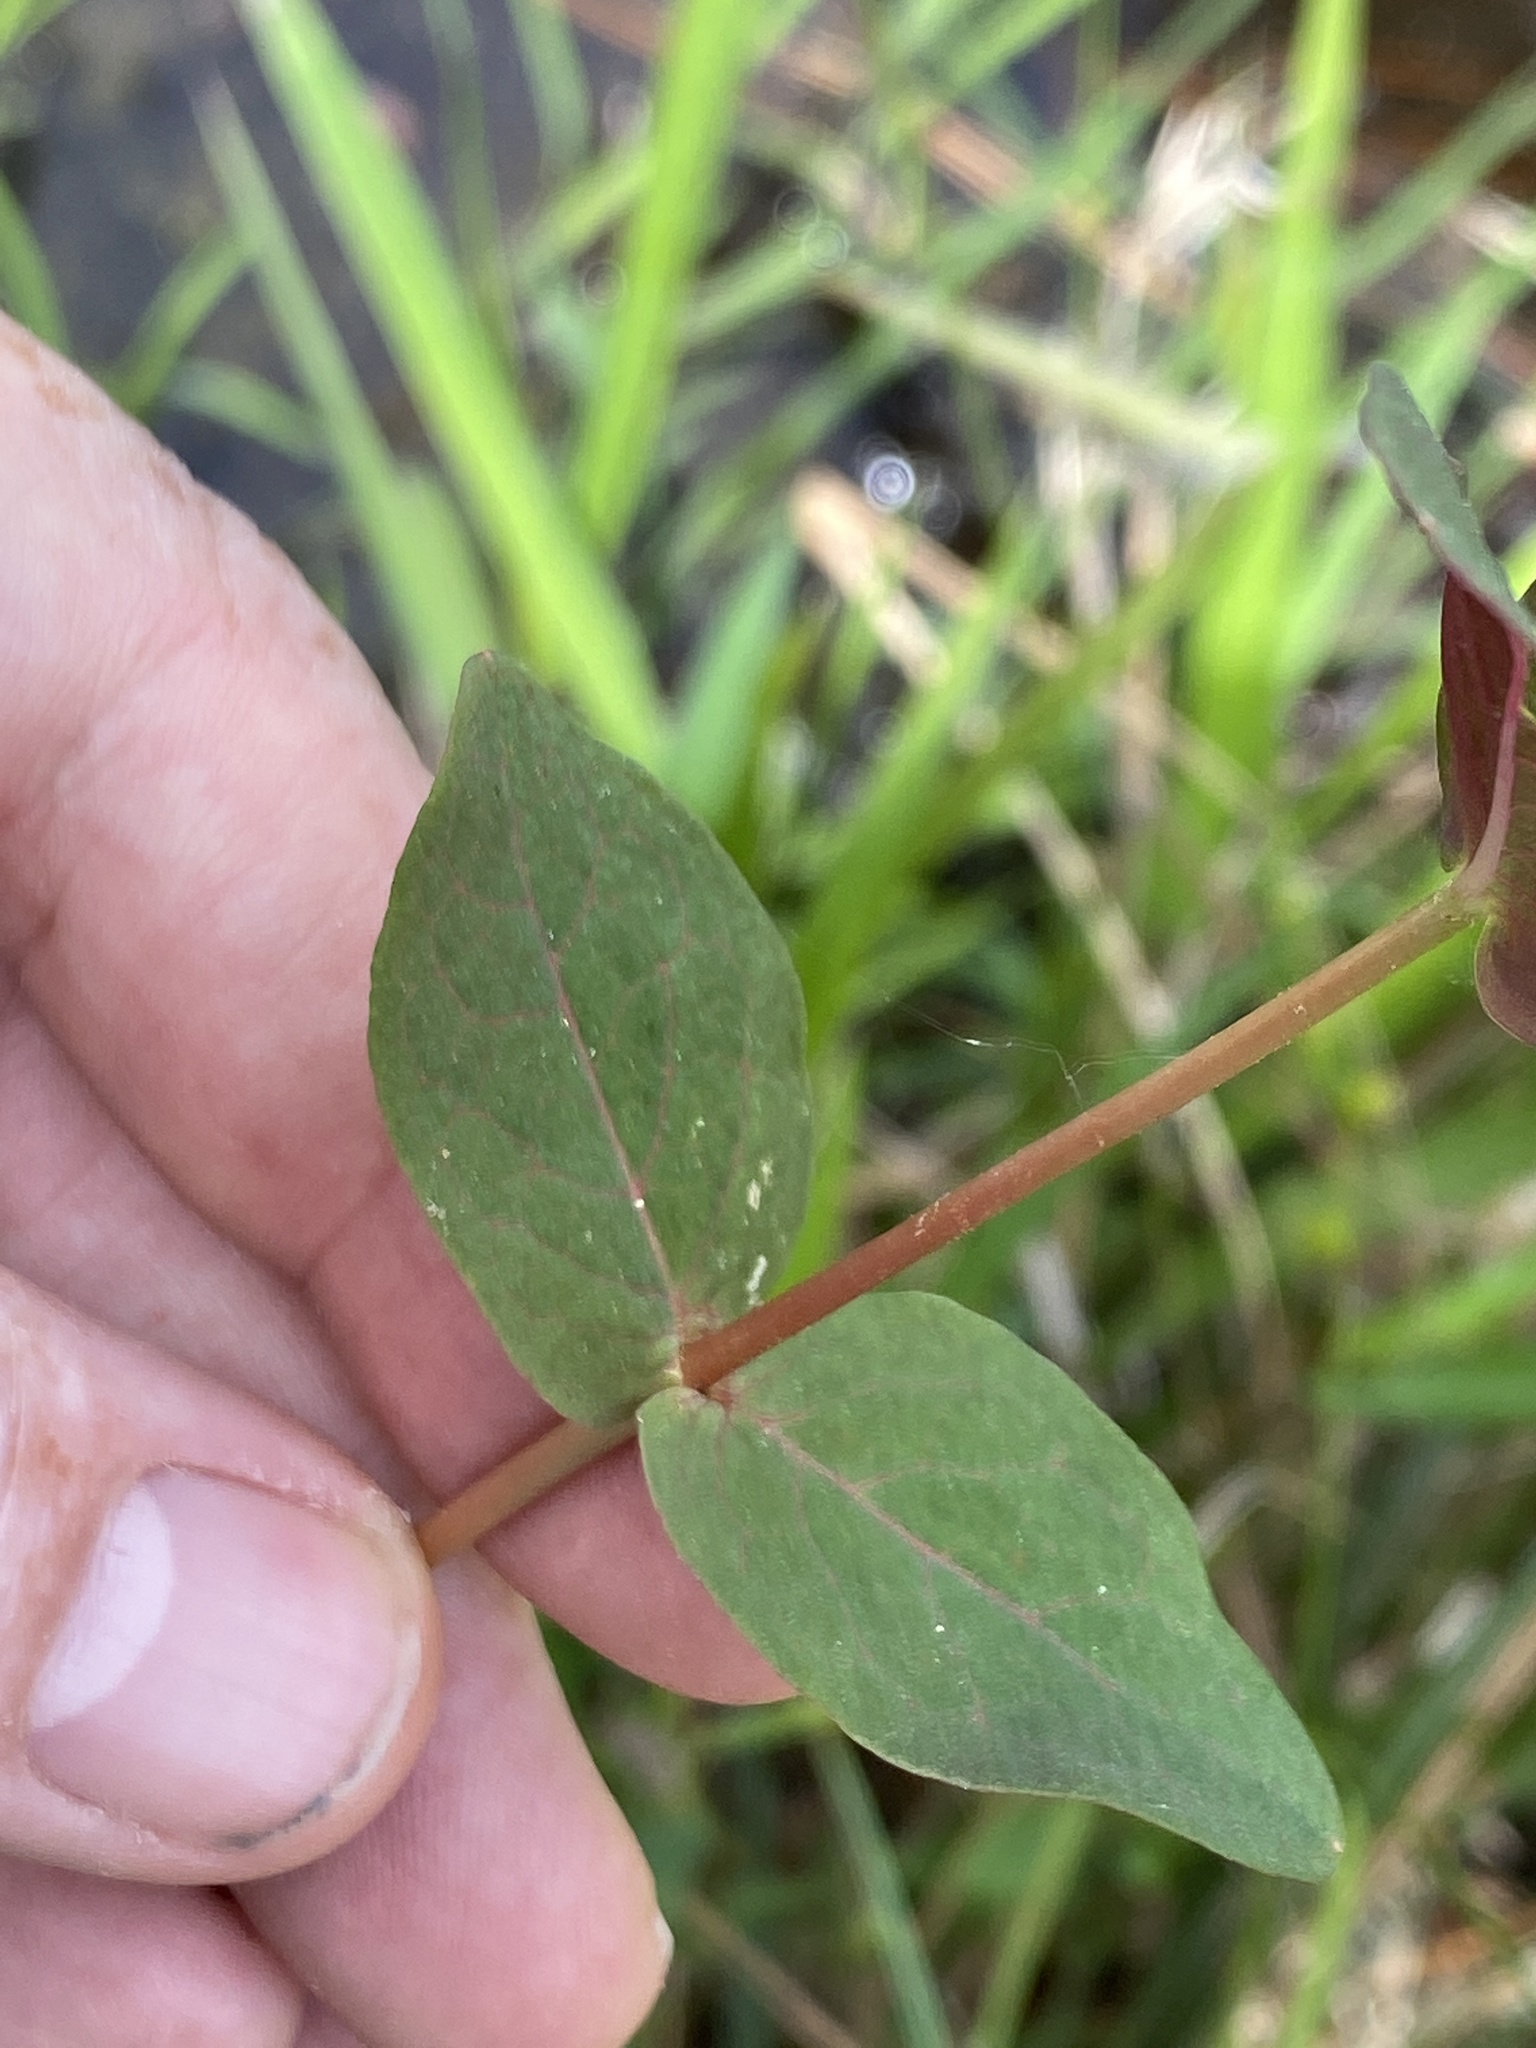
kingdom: Plantae
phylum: Tracheophyta
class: Magnoliopsida
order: Malpighiales
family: Hypericaceae
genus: Triadenum
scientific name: Triadenum virginicum
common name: Marsh st. john's-wort
